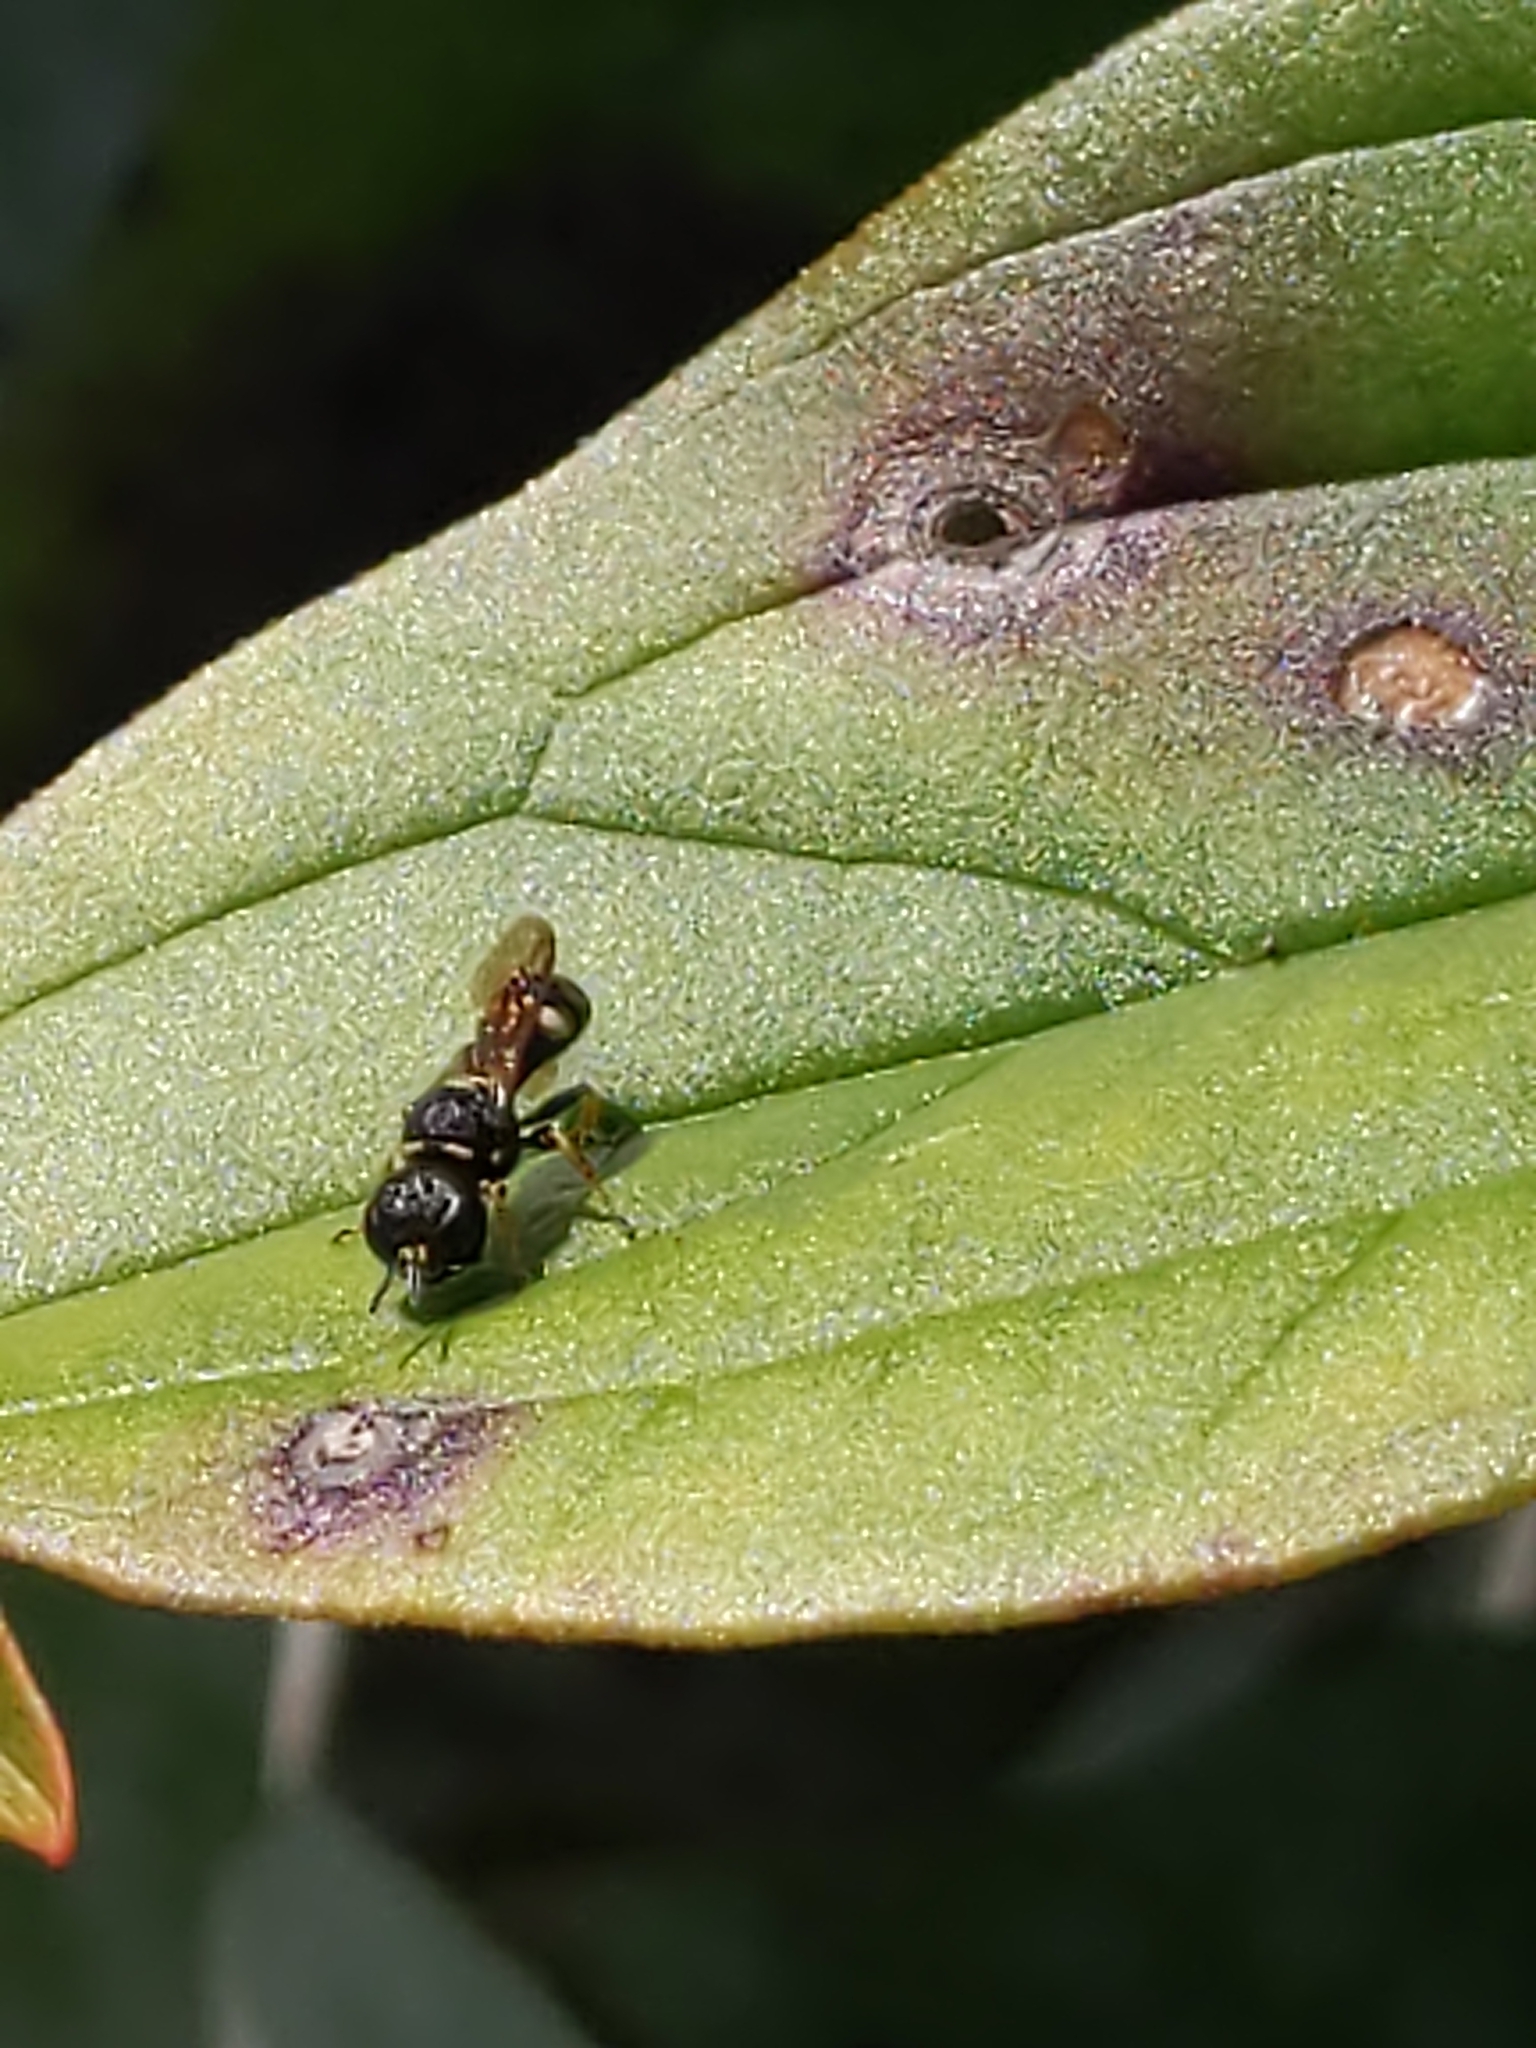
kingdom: Animalia
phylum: Arthropoda
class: Insecta
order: Hymenoptera
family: Crabronidae
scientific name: Crabronidae
